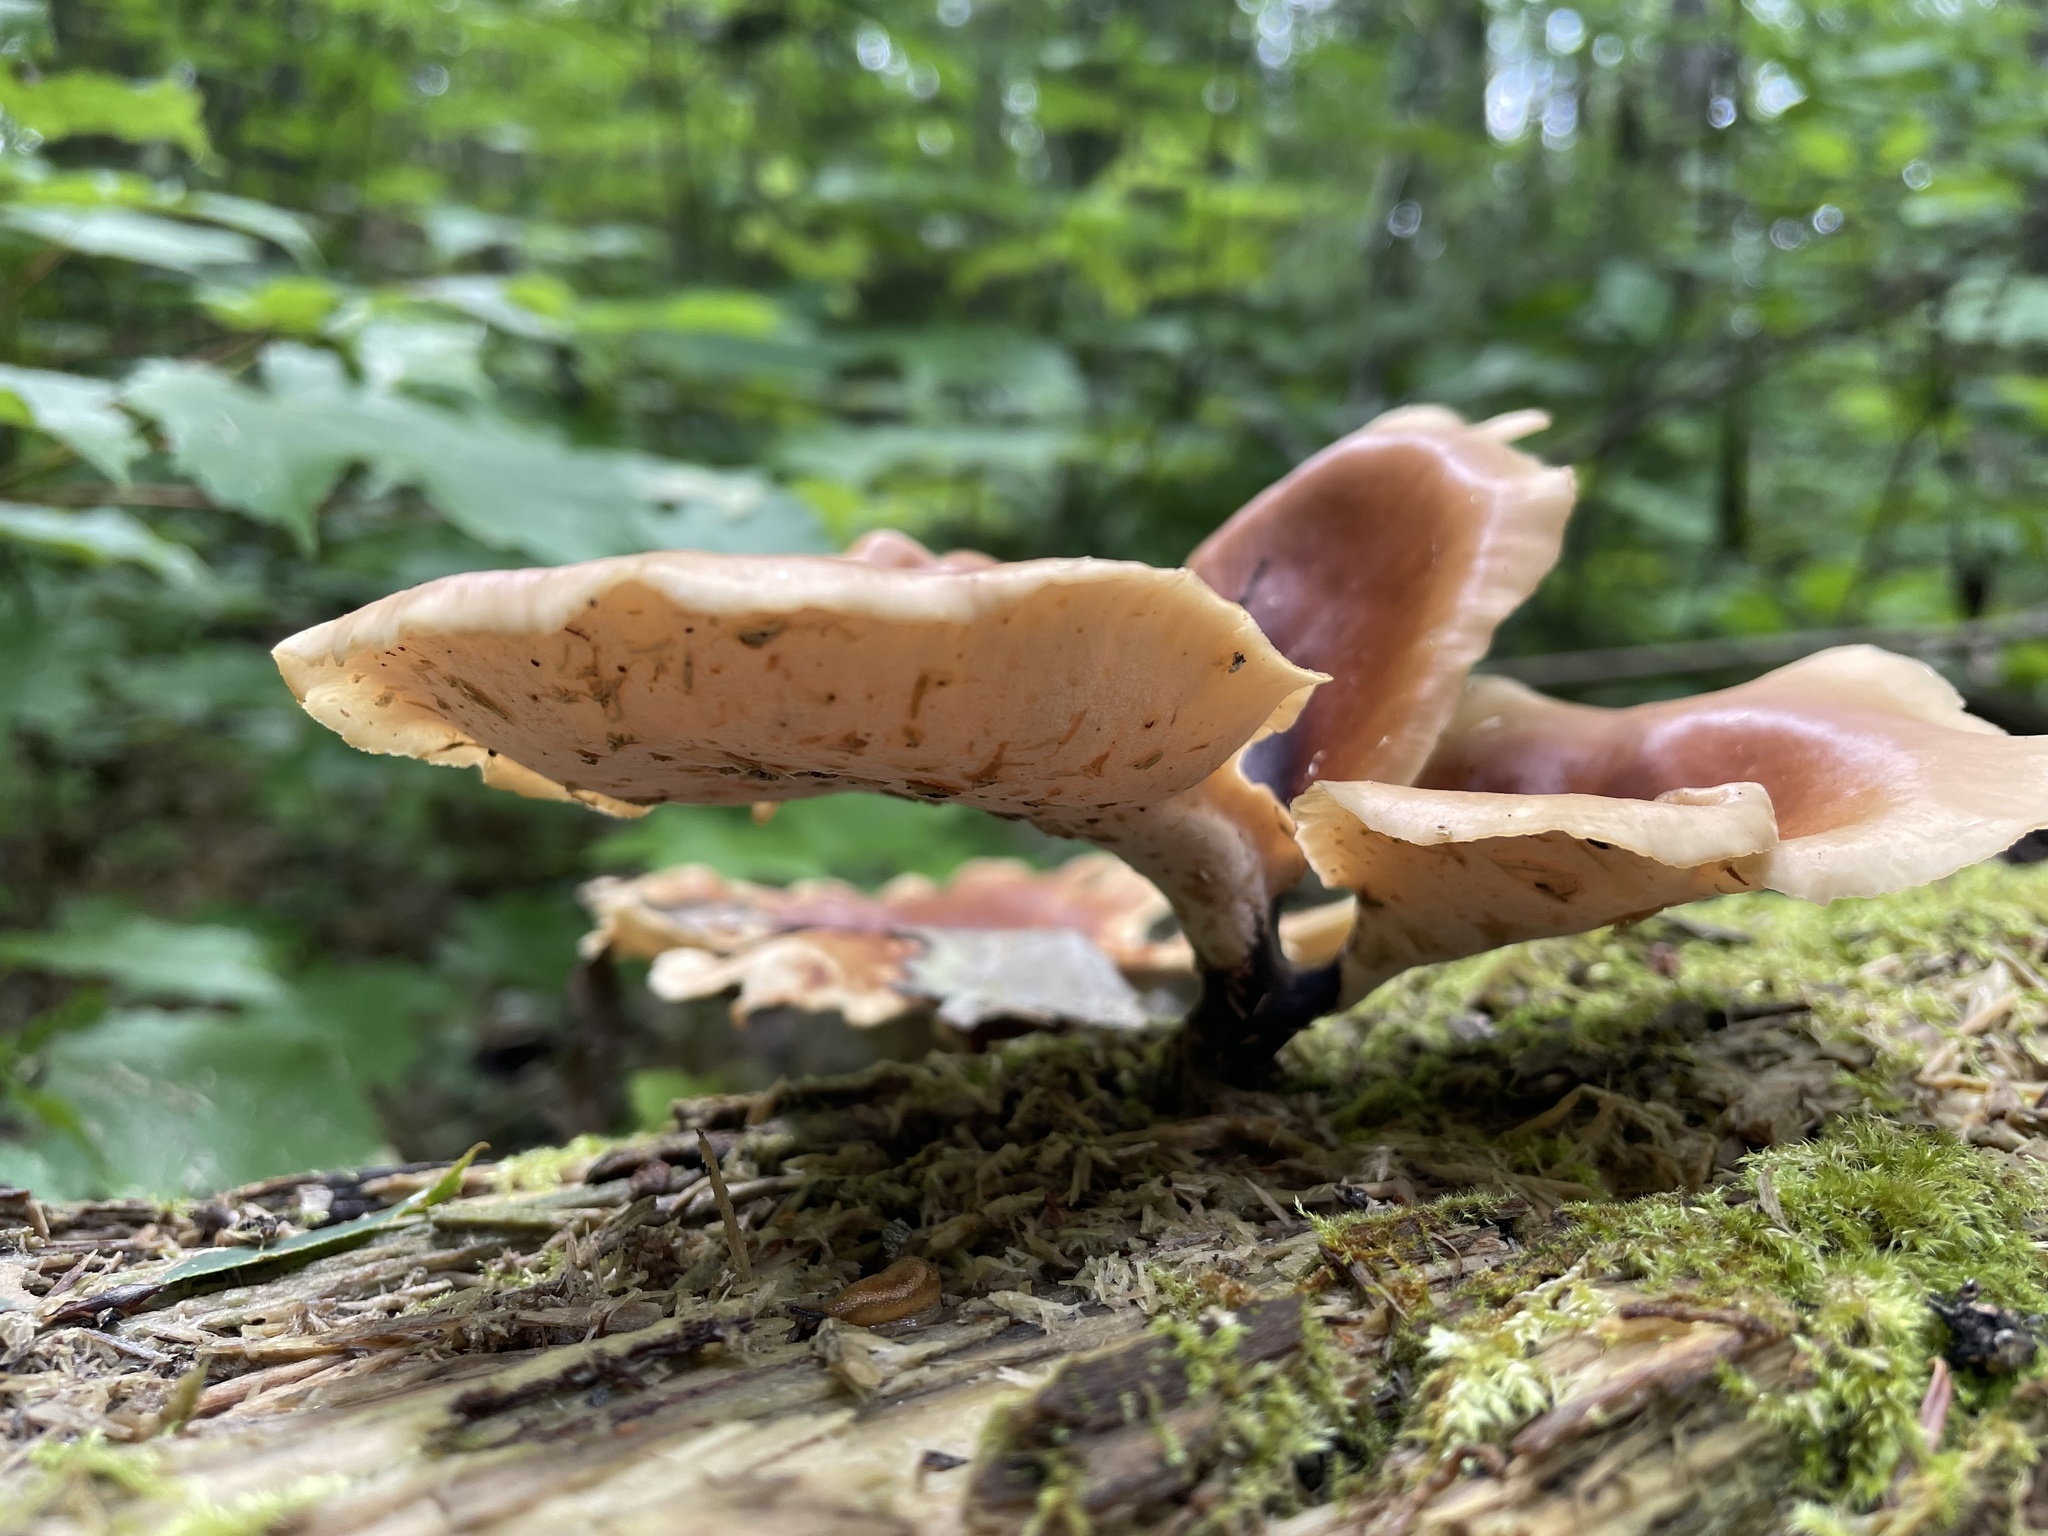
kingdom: Fungi
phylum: Basidiomycota
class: Agaricomycetes
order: Polyporales
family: Polyporaceae
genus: Picipes
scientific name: Picipes badius
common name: Bay polypore
